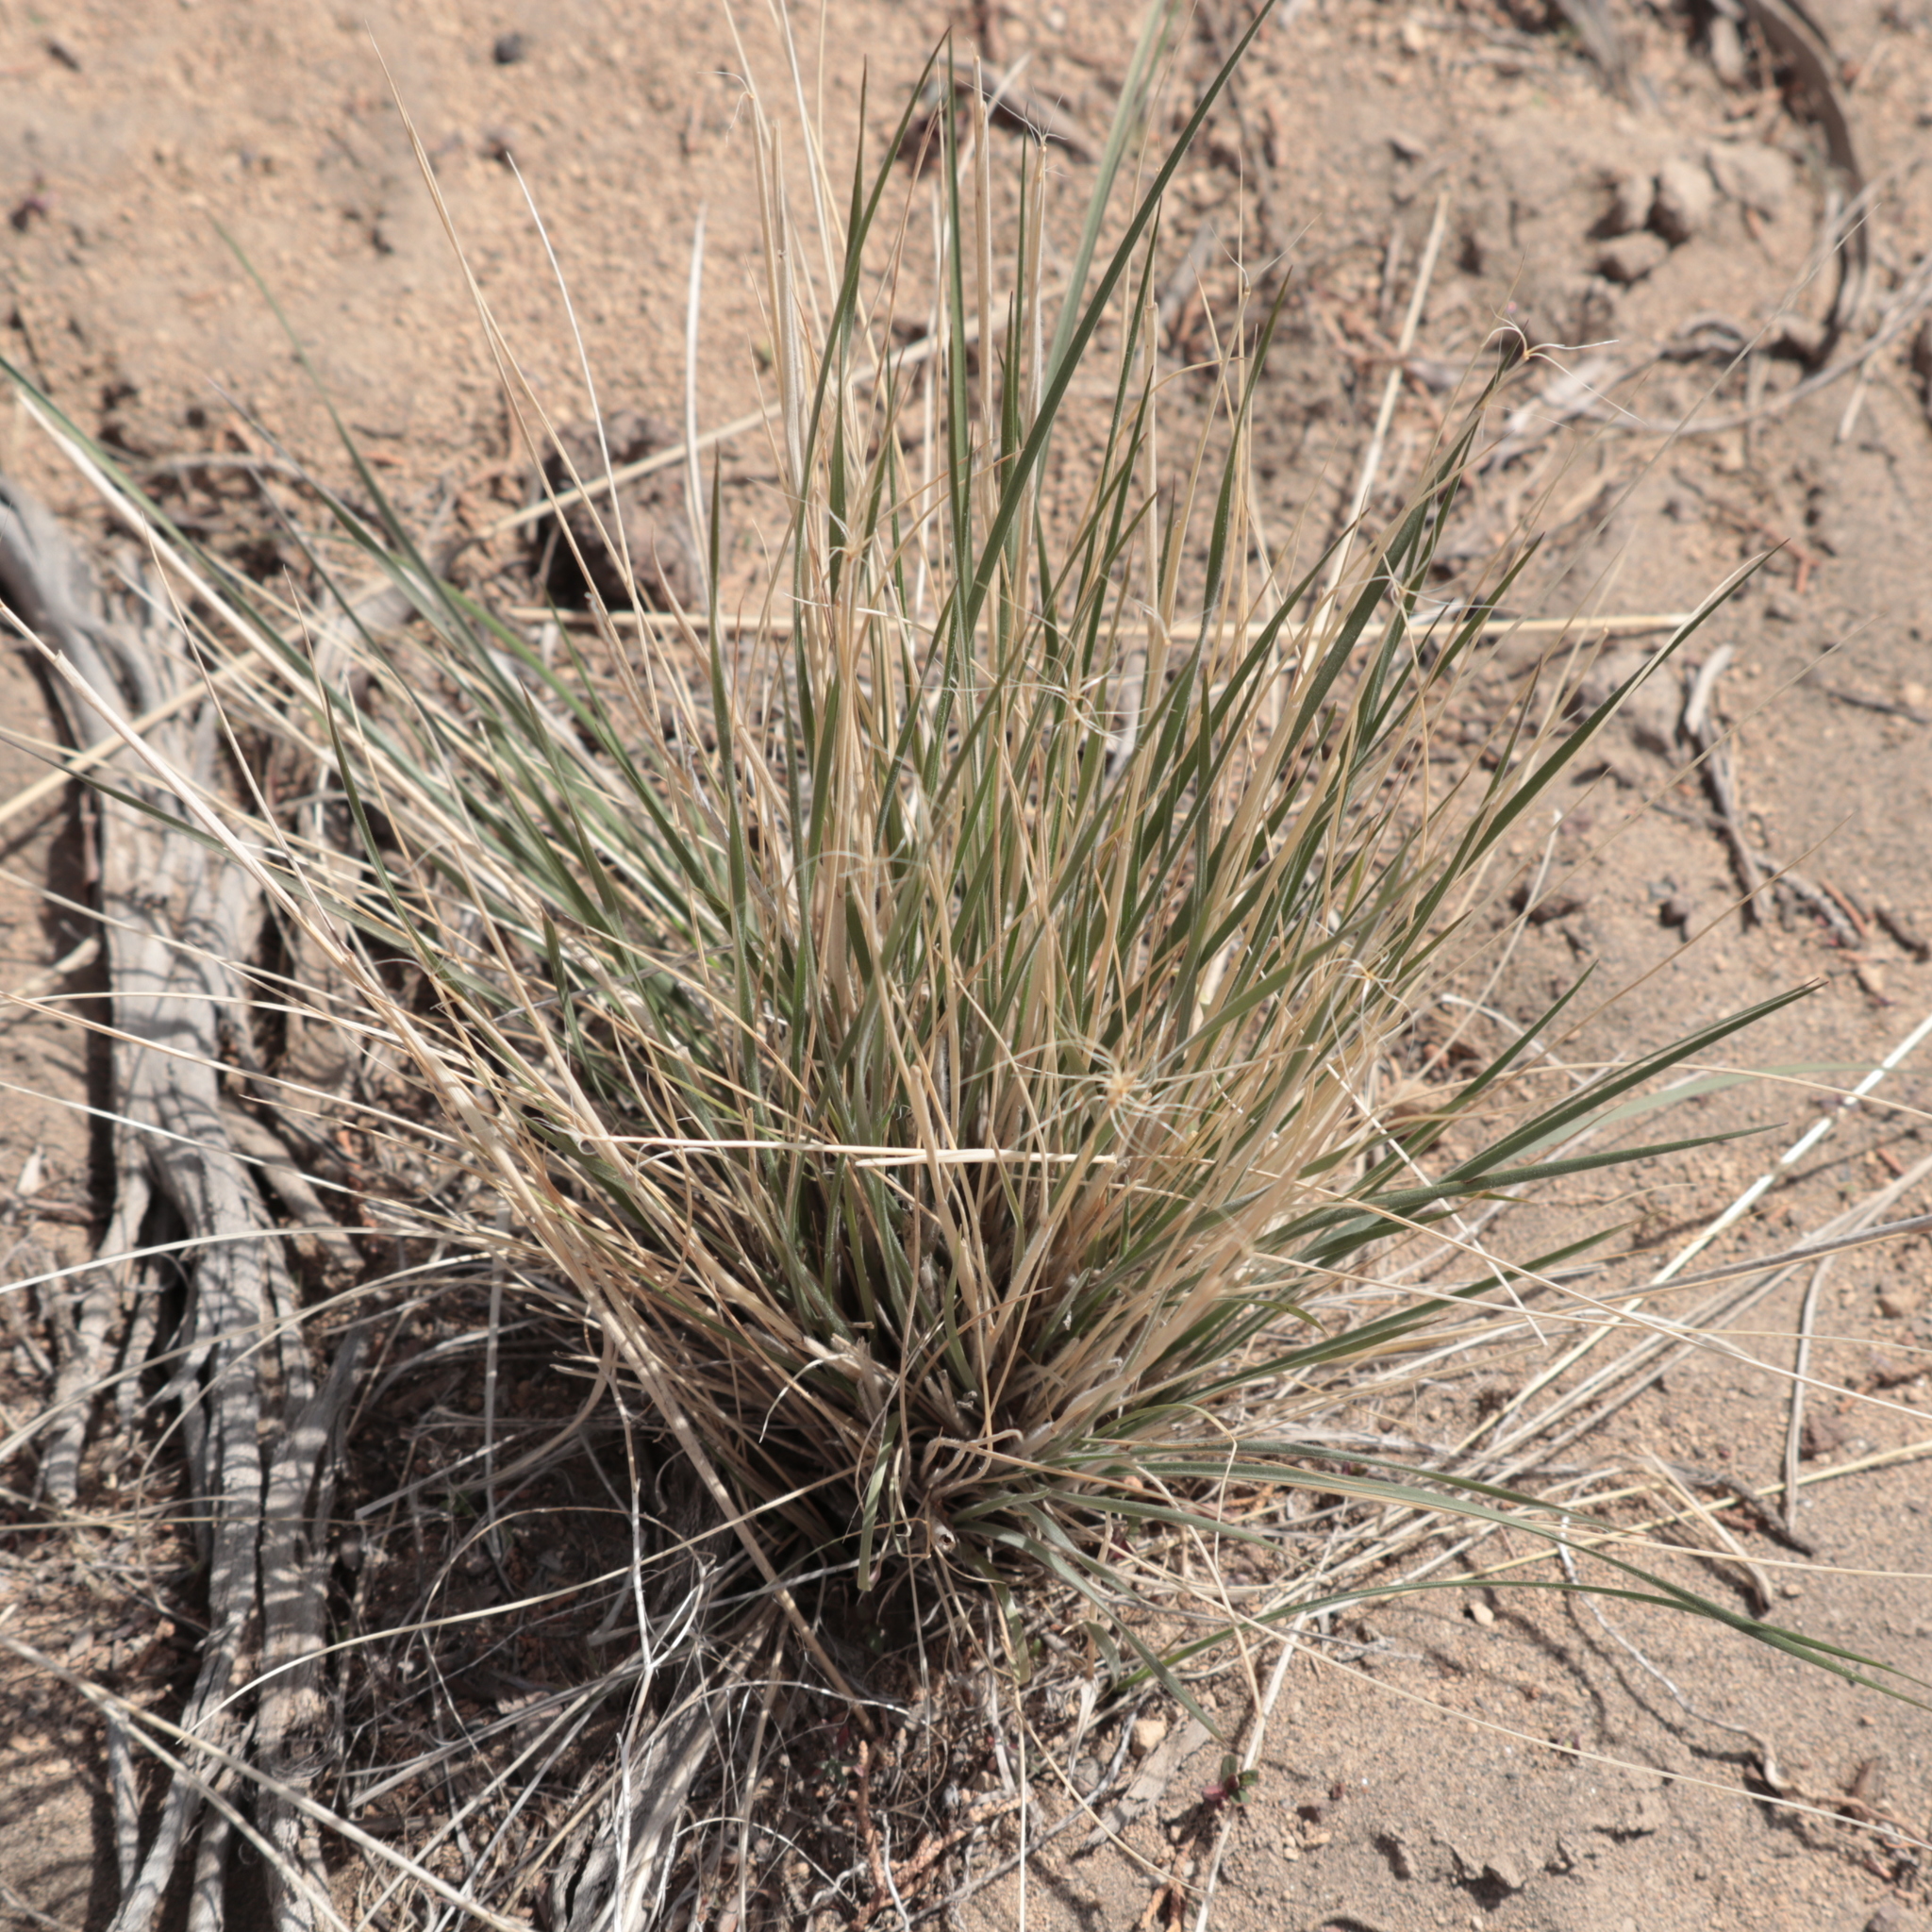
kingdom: Plantae
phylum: Tracheophyta
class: Liliopsida
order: Poales
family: Poaceae
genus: Elymus
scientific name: Elymus elymoides
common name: Bottlebrush squirreltail
